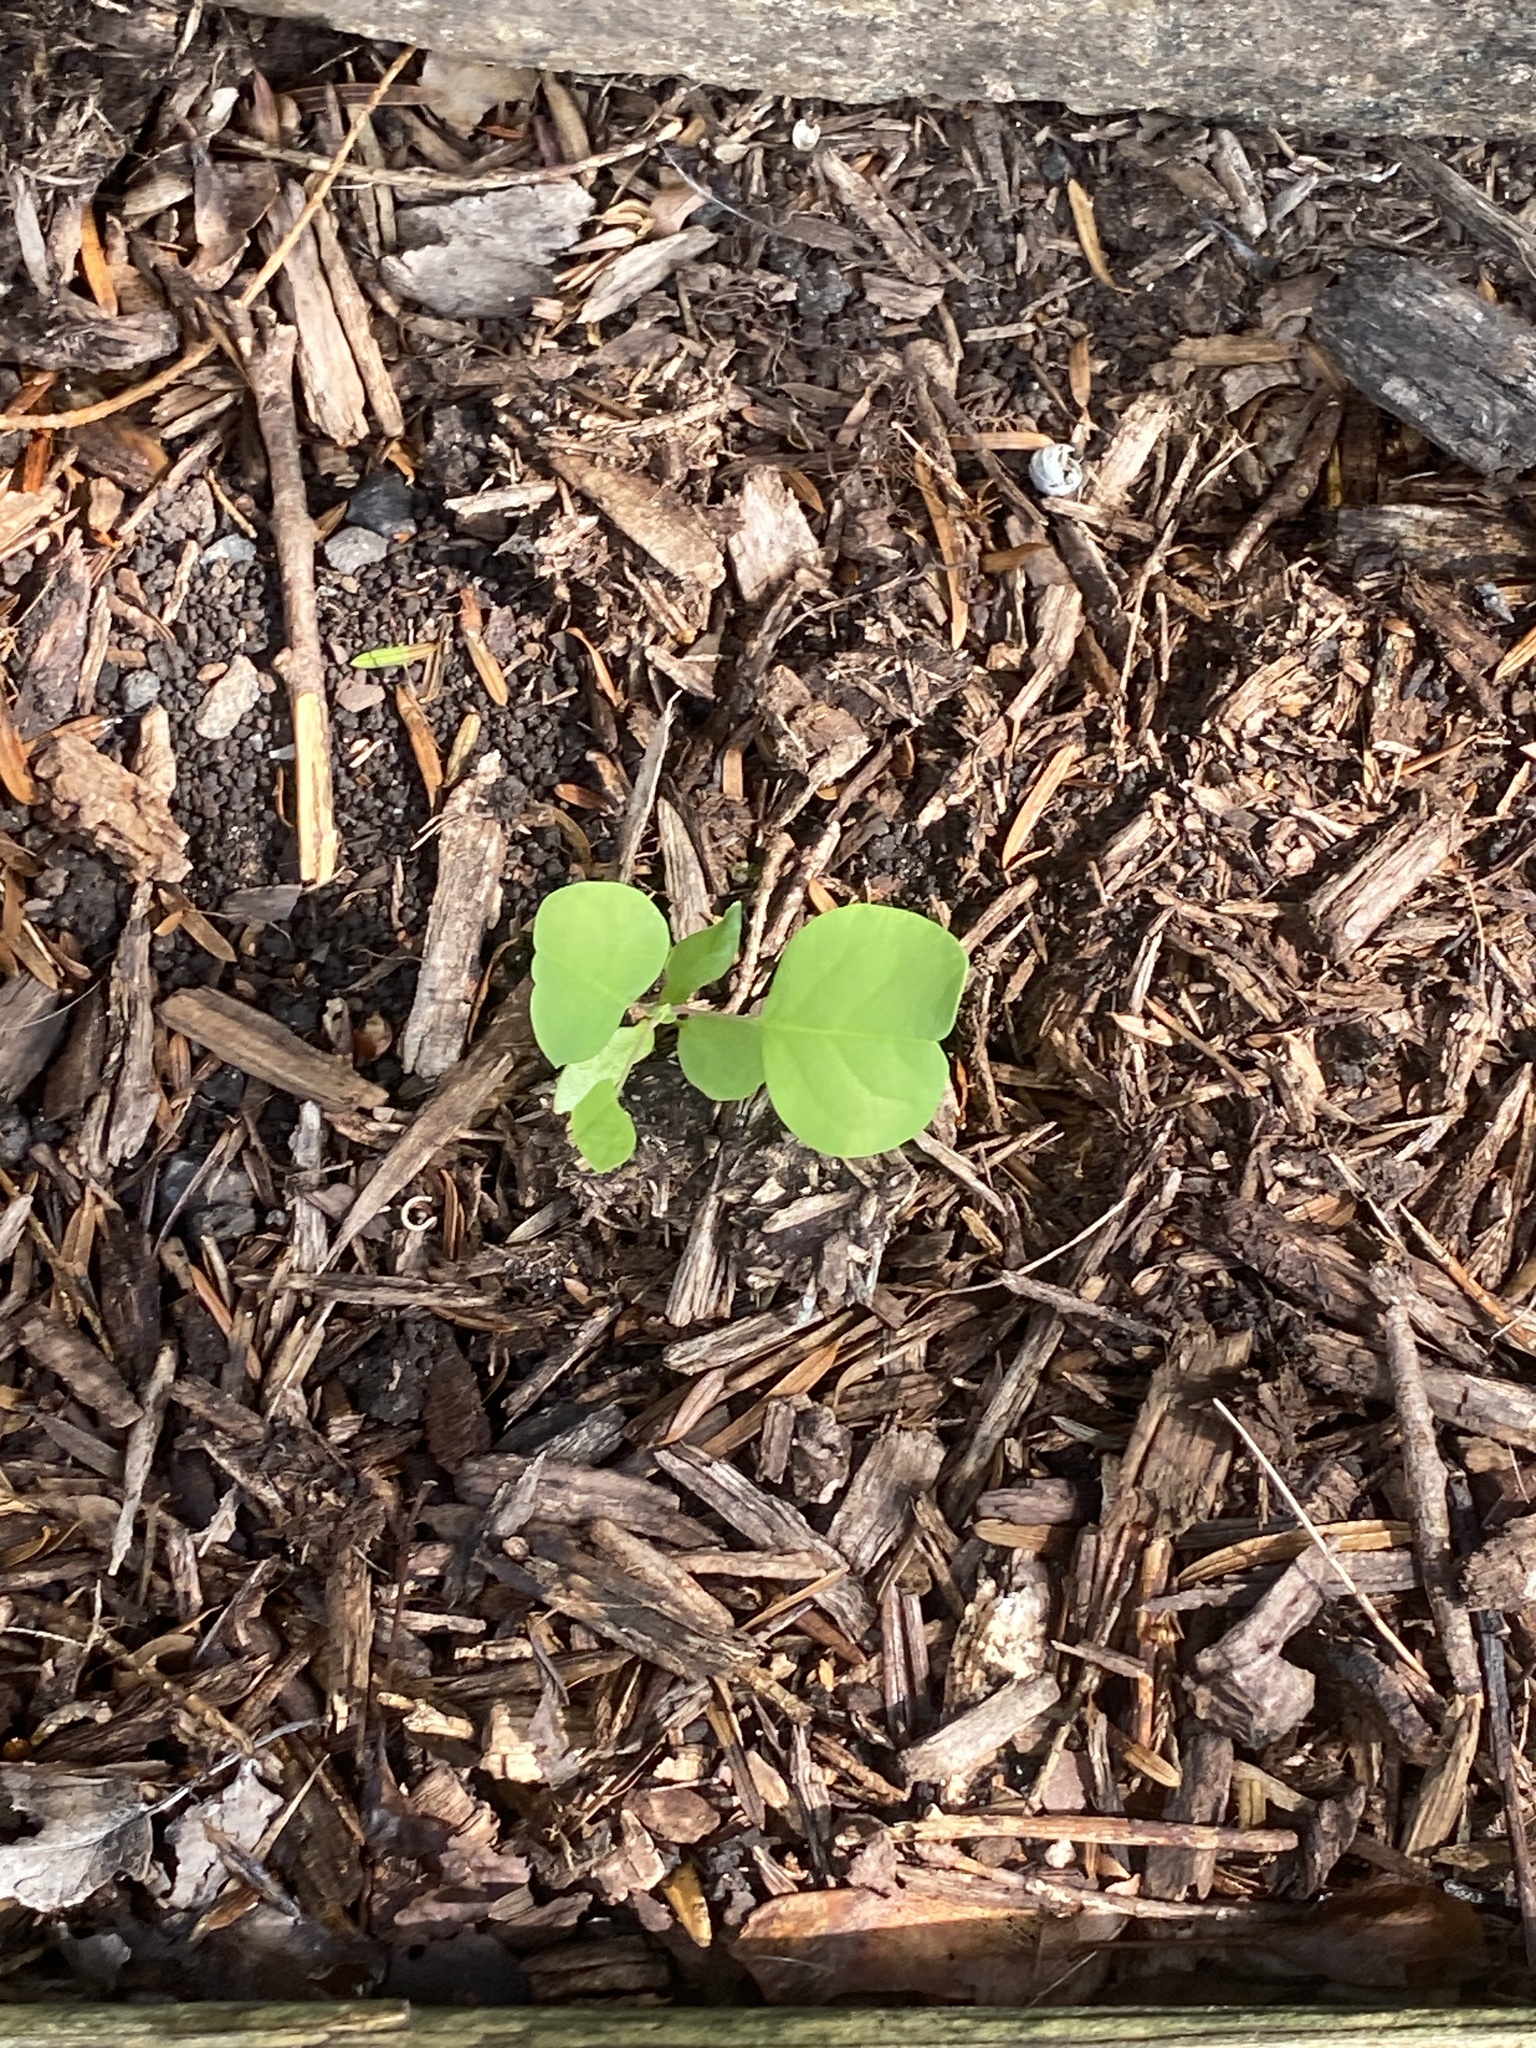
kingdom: Plantae
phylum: Tracheophyta
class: Magnoliopsida
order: Magnoliales
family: Magnoliaceae
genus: Liriodendron
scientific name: Liriodendron tulipifera
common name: Tulip tree
